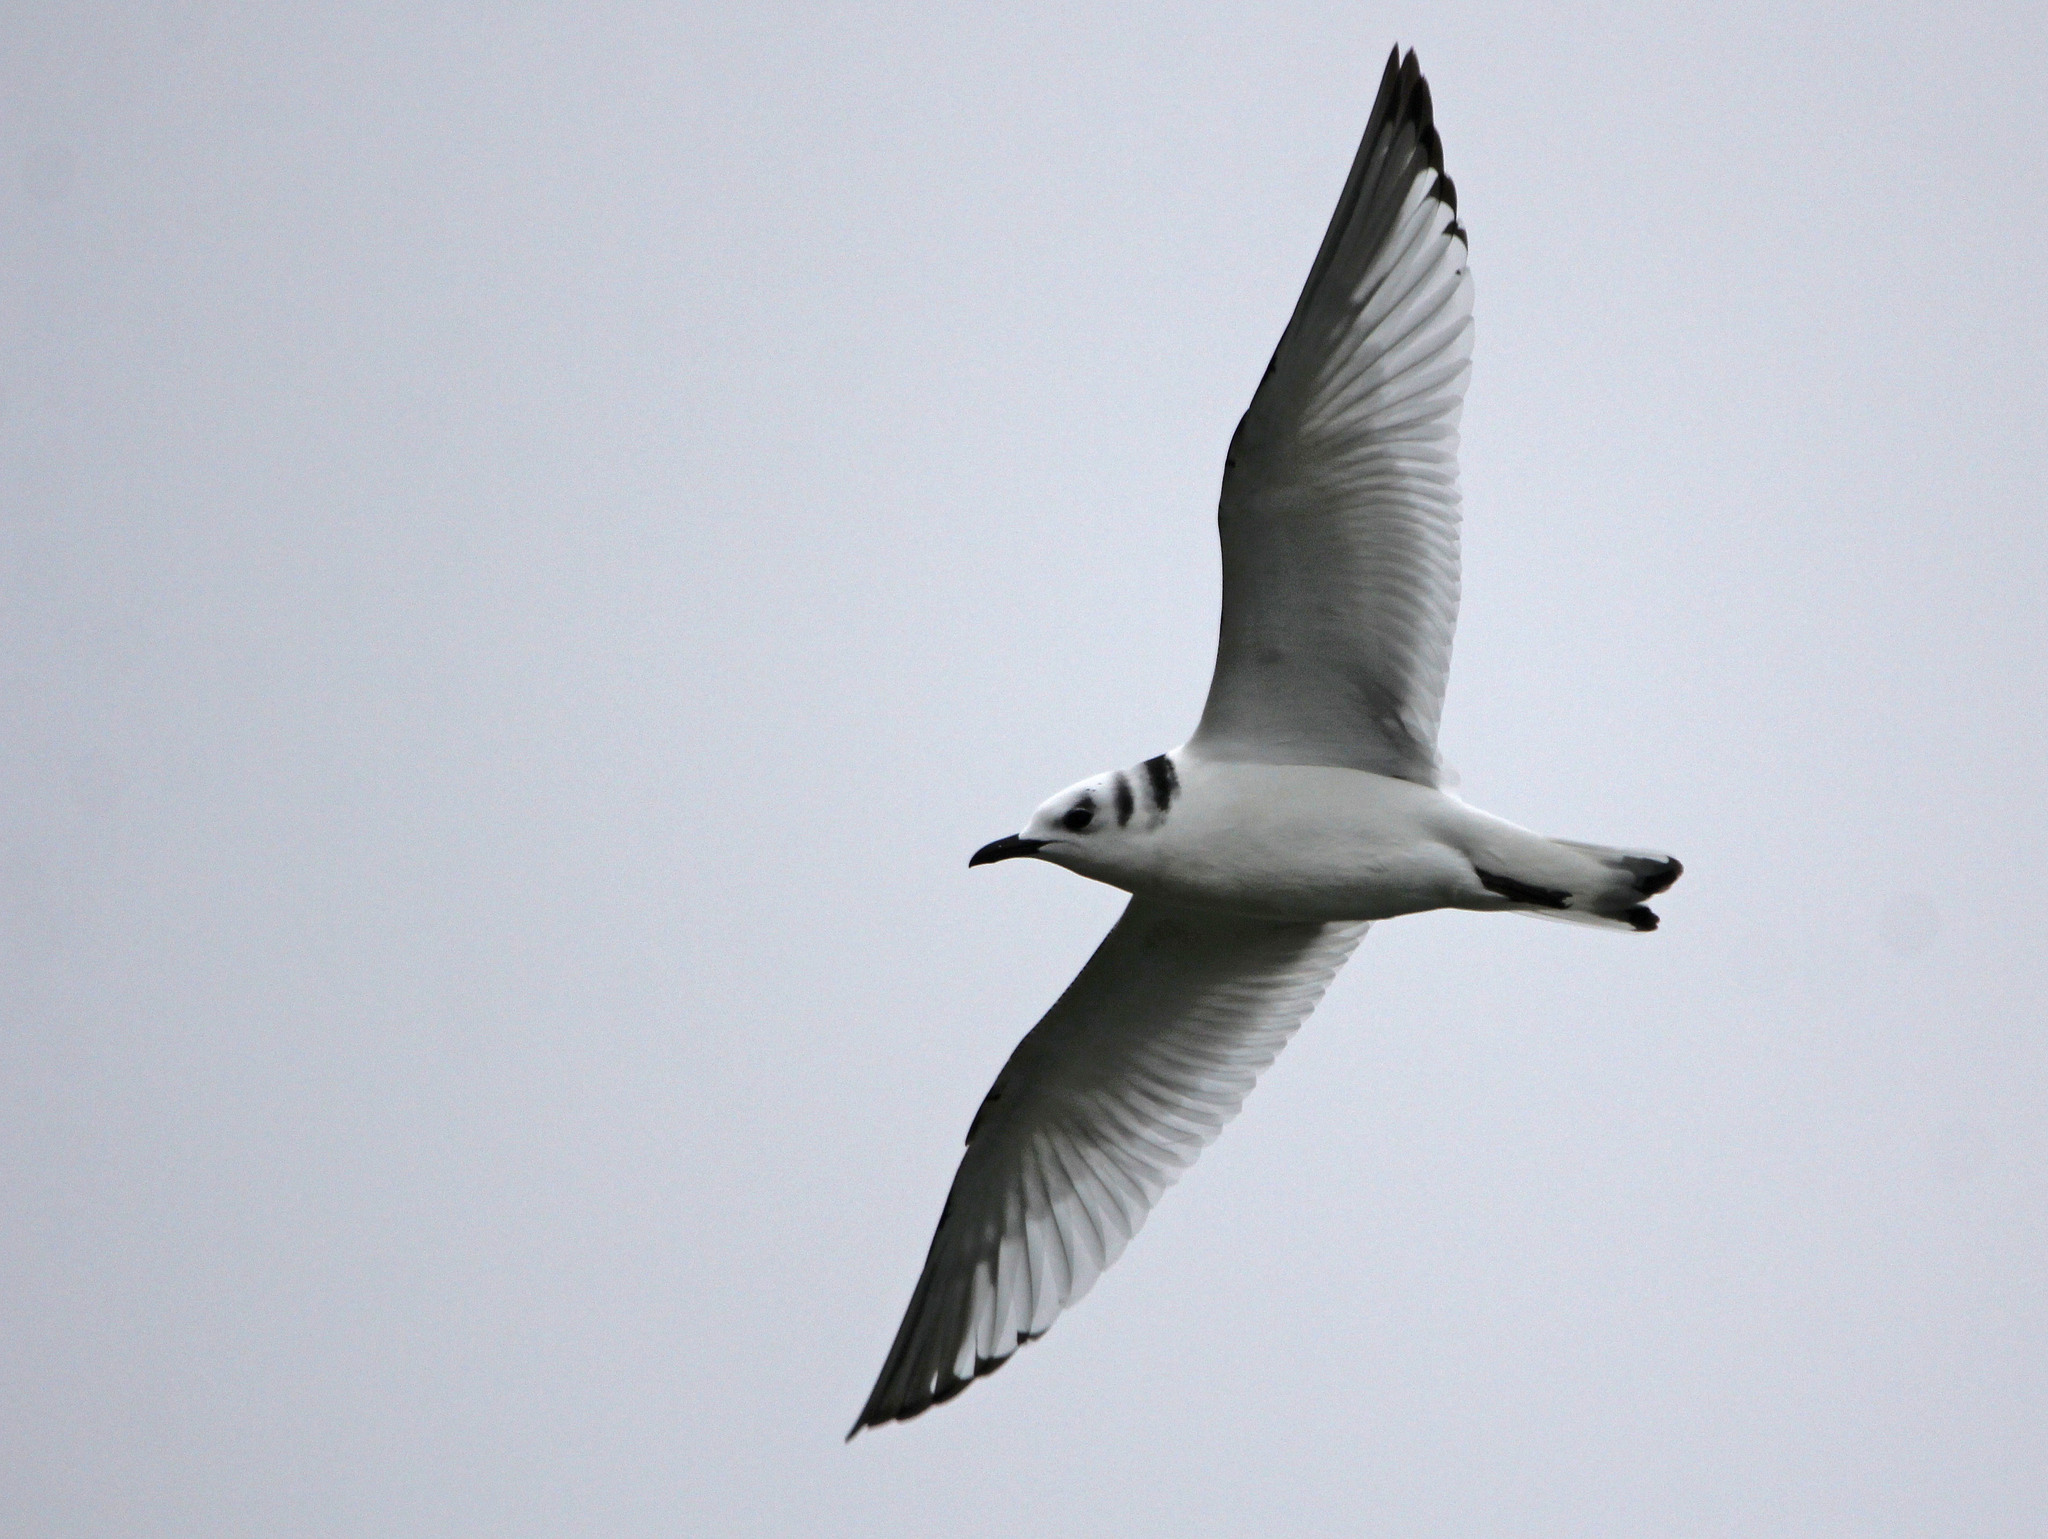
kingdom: Animalia
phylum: Chordata
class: Aves
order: Charadriiformes
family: Laridae
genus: Rissa
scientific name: Rissa tridactyla
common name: Black-legged kittiwake
